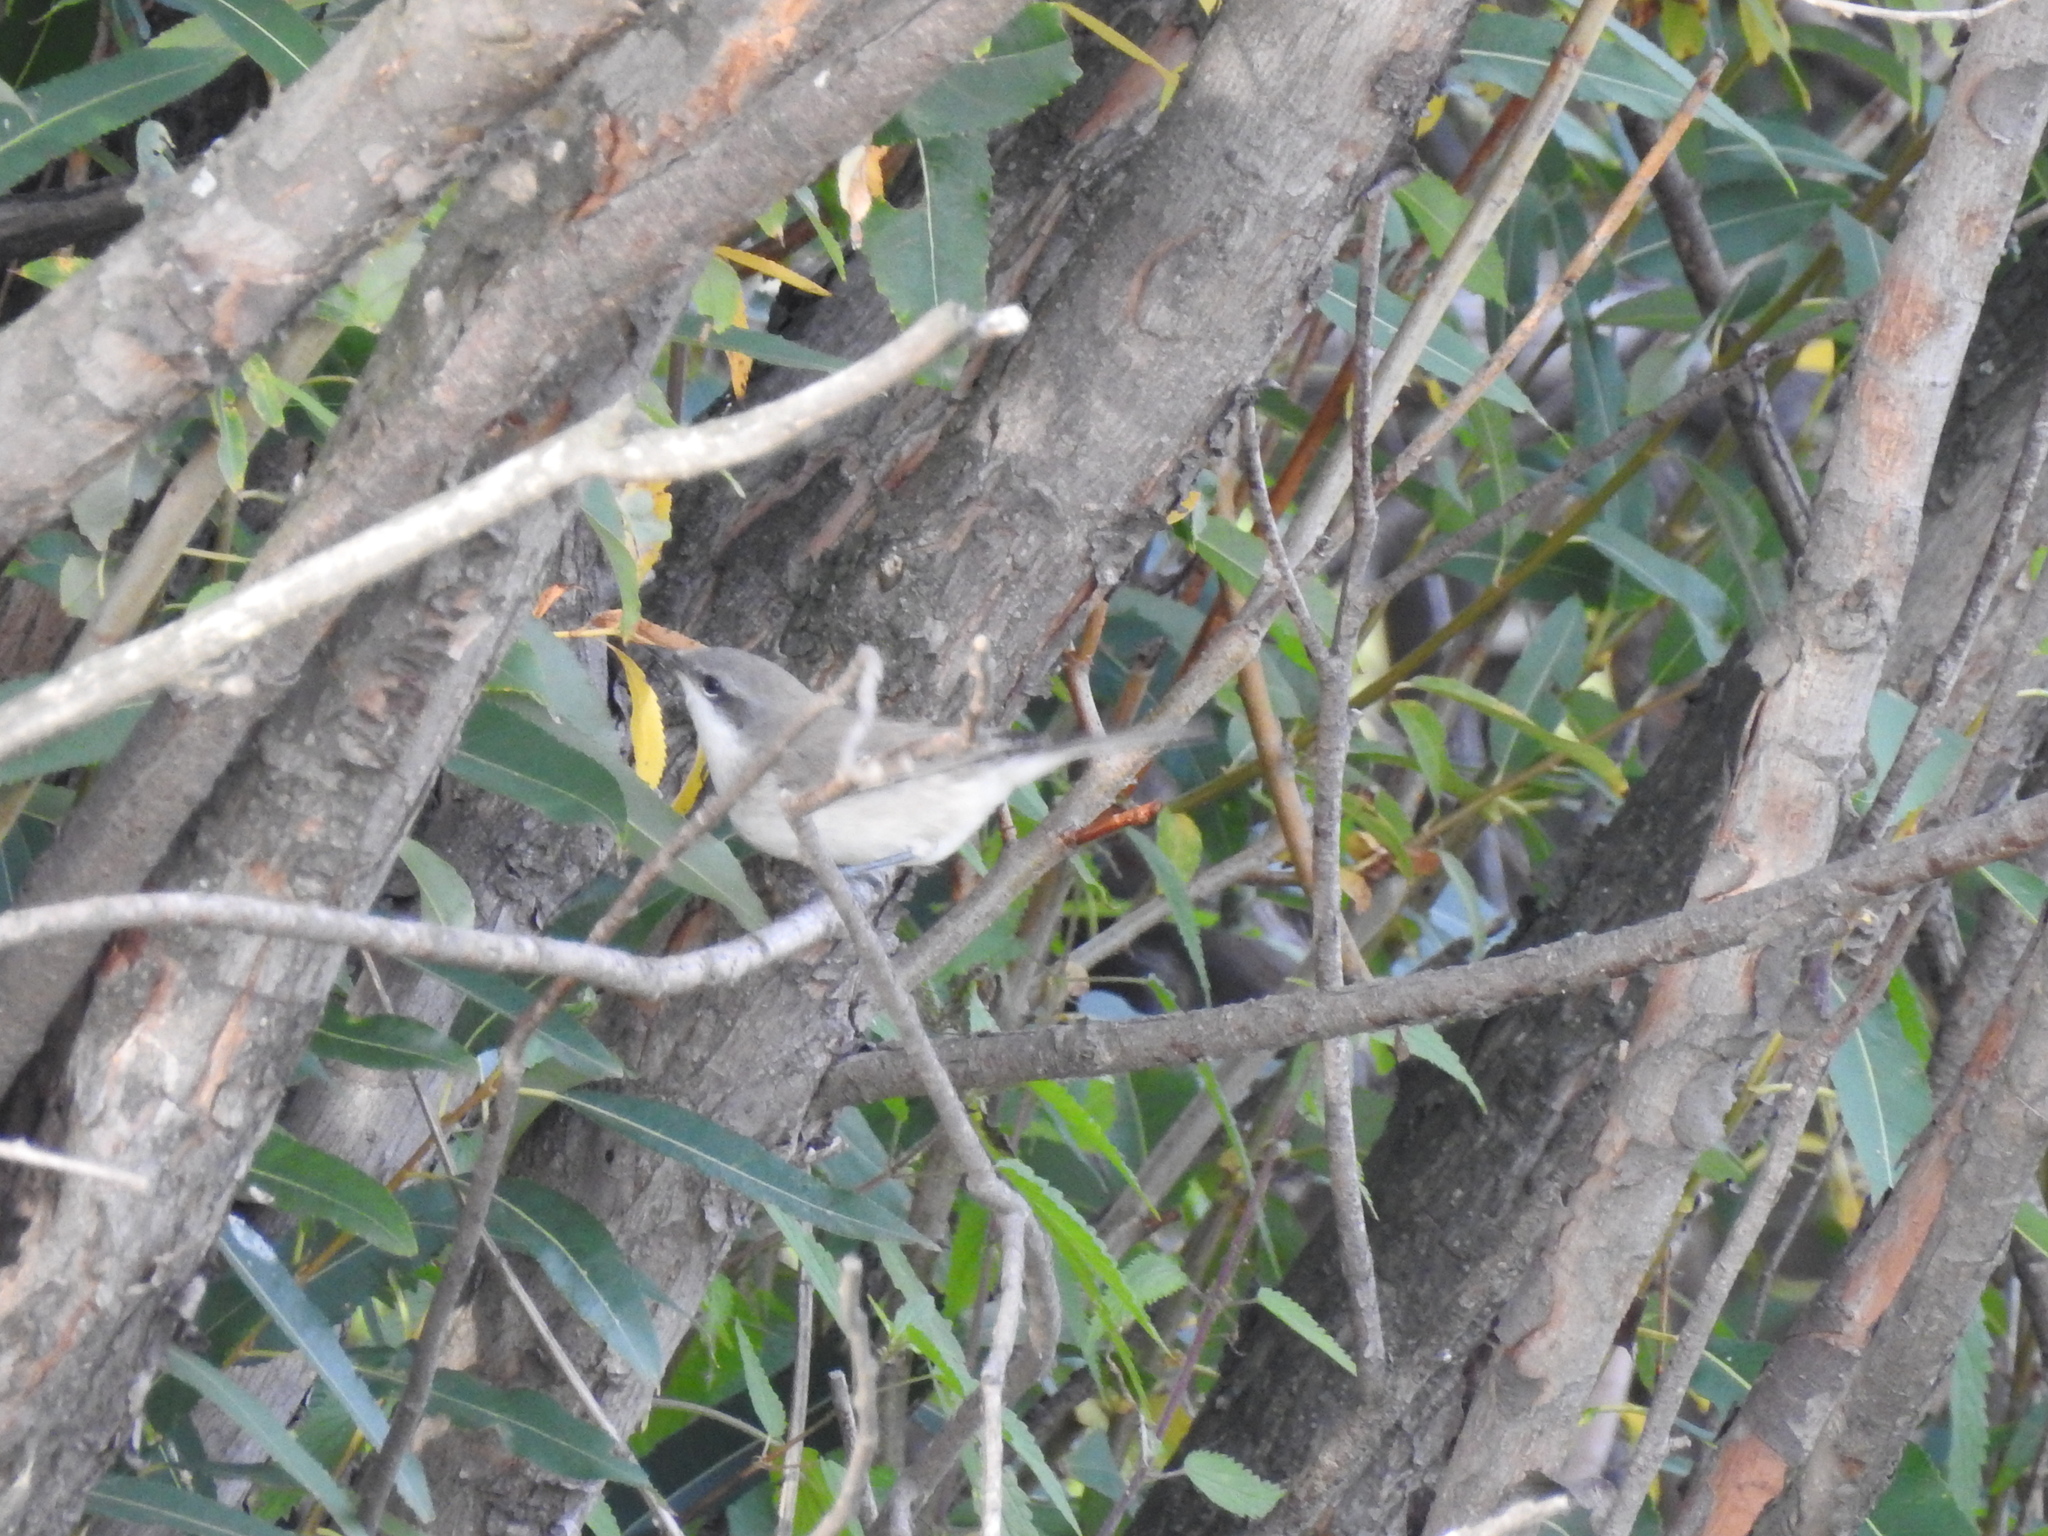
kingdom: Animalia
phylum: Chordata
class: Aves
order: Passeriformes
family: Sylviidae
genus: Sylvia
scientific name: Sylvia curruca
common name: Lesser whitethroat
